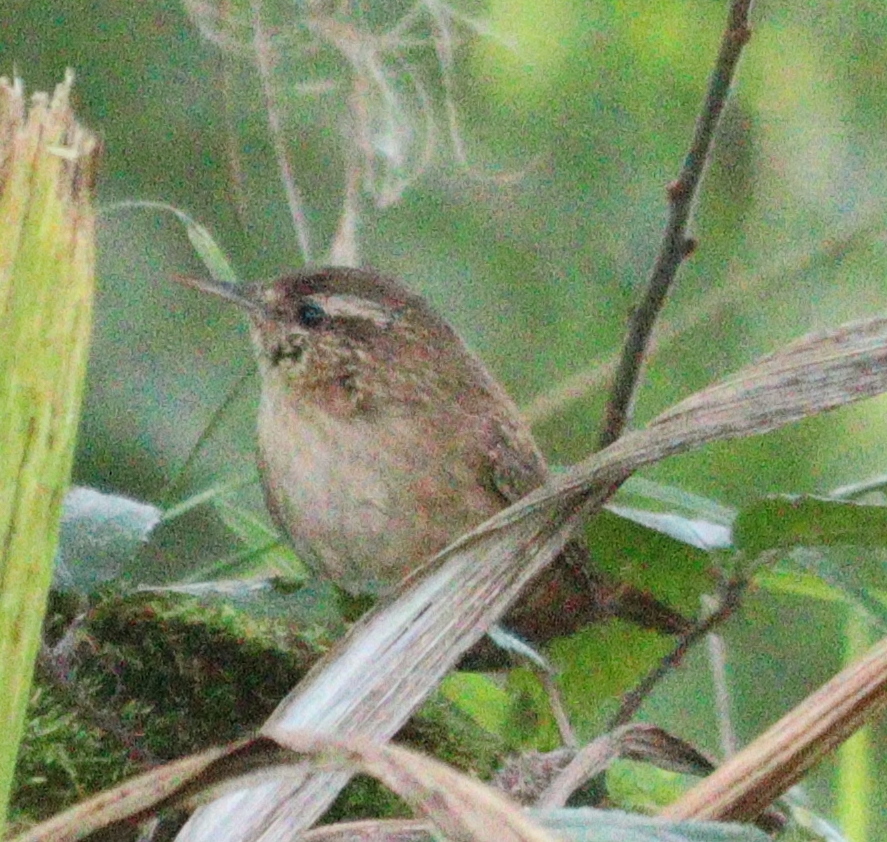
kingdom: Animalia
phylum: Chordata
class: Aves
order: Passeriformes
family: Troglodytidae
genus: Troglodytes
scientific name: Troglodytes troglodytes
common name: Eurasian wren
